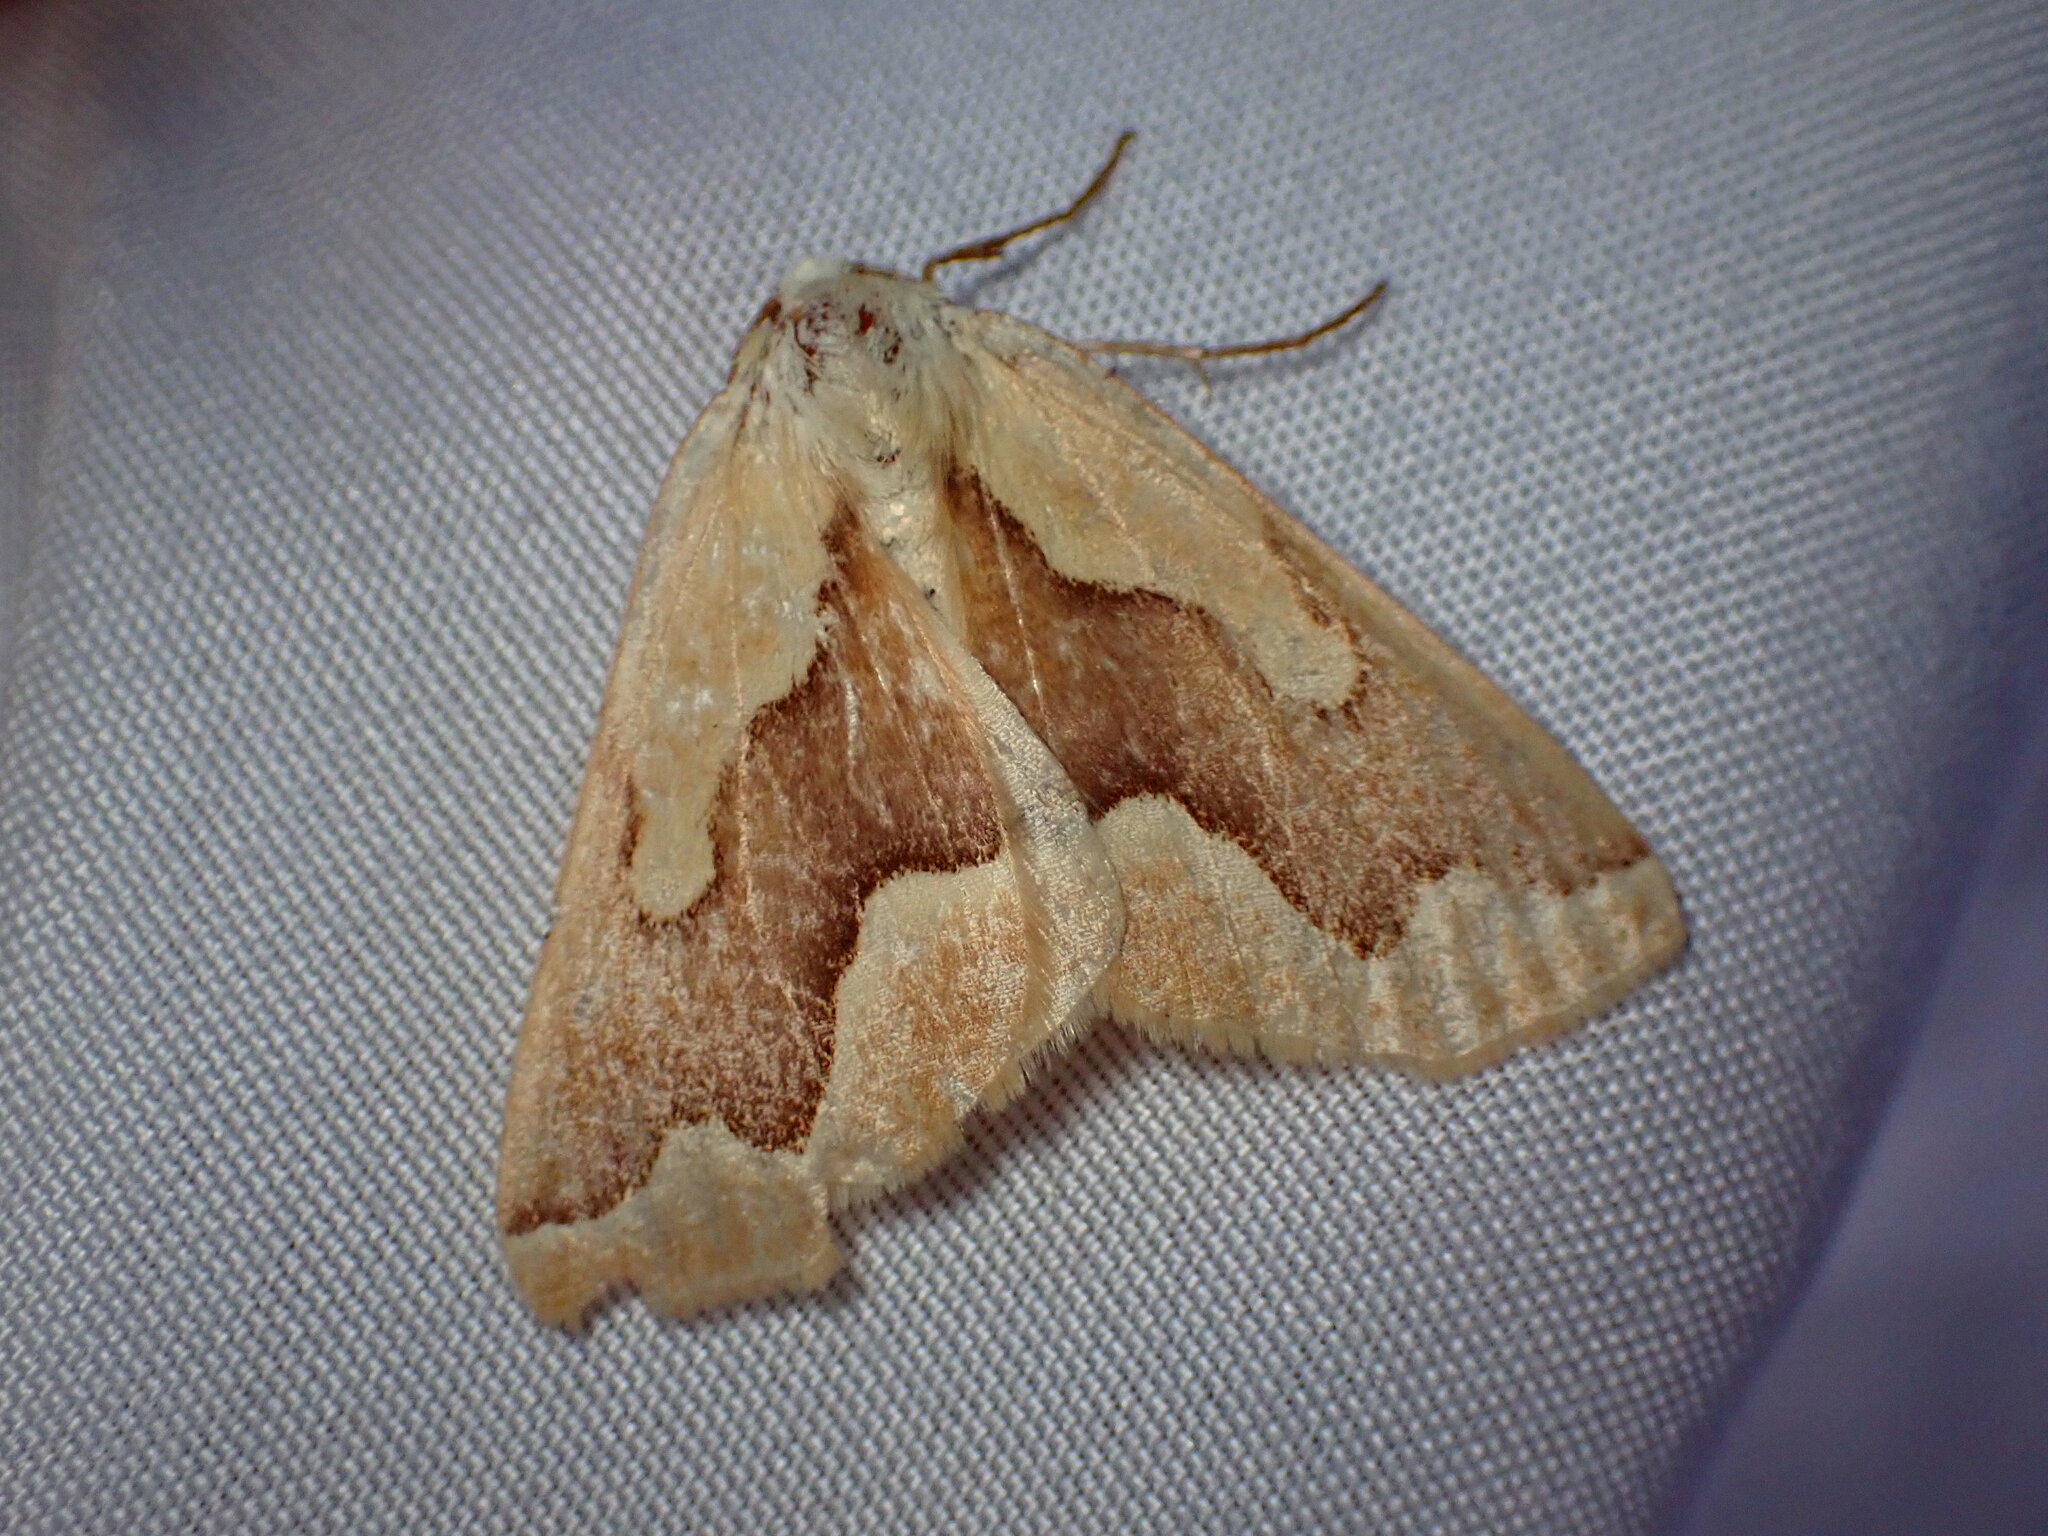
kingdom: Animalia
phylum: Arthropoda
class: Insecta
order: Lepidoptera
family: Geometridae
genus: Sabulodes
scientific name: Sabulodes edwardsata
